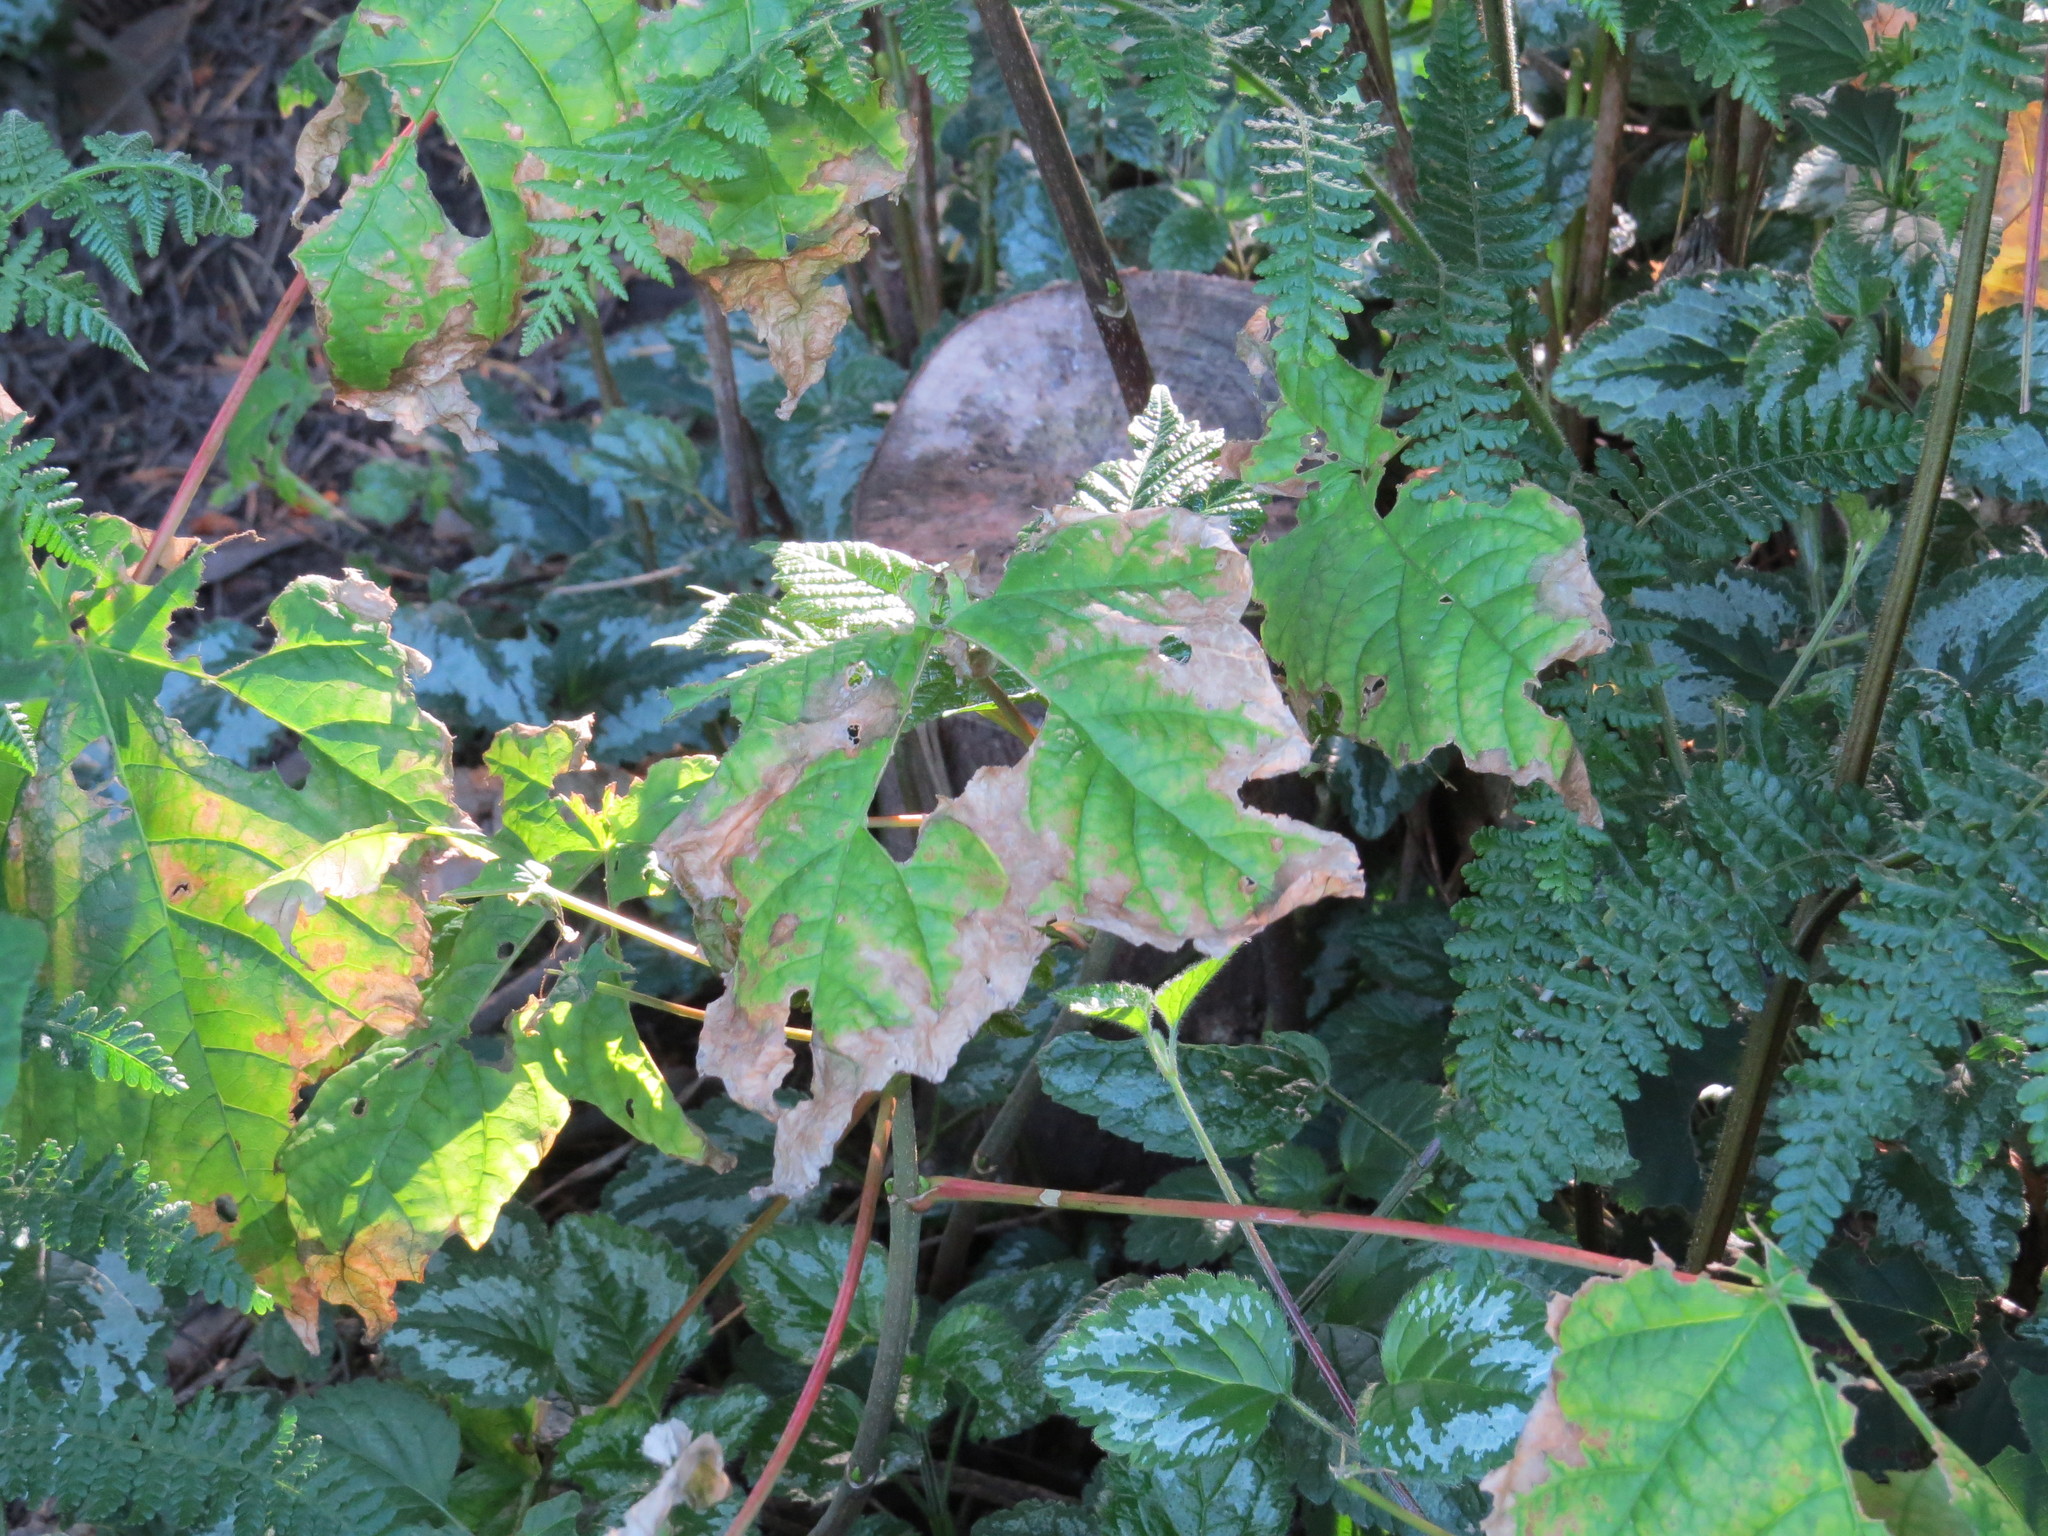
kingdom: Plantae
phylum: Tracheophyta
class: Magnoliopsida
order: Sapindales
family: Sapindaceae
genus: Acer
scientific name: Acer pseudoplatanus
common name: Sycamore
